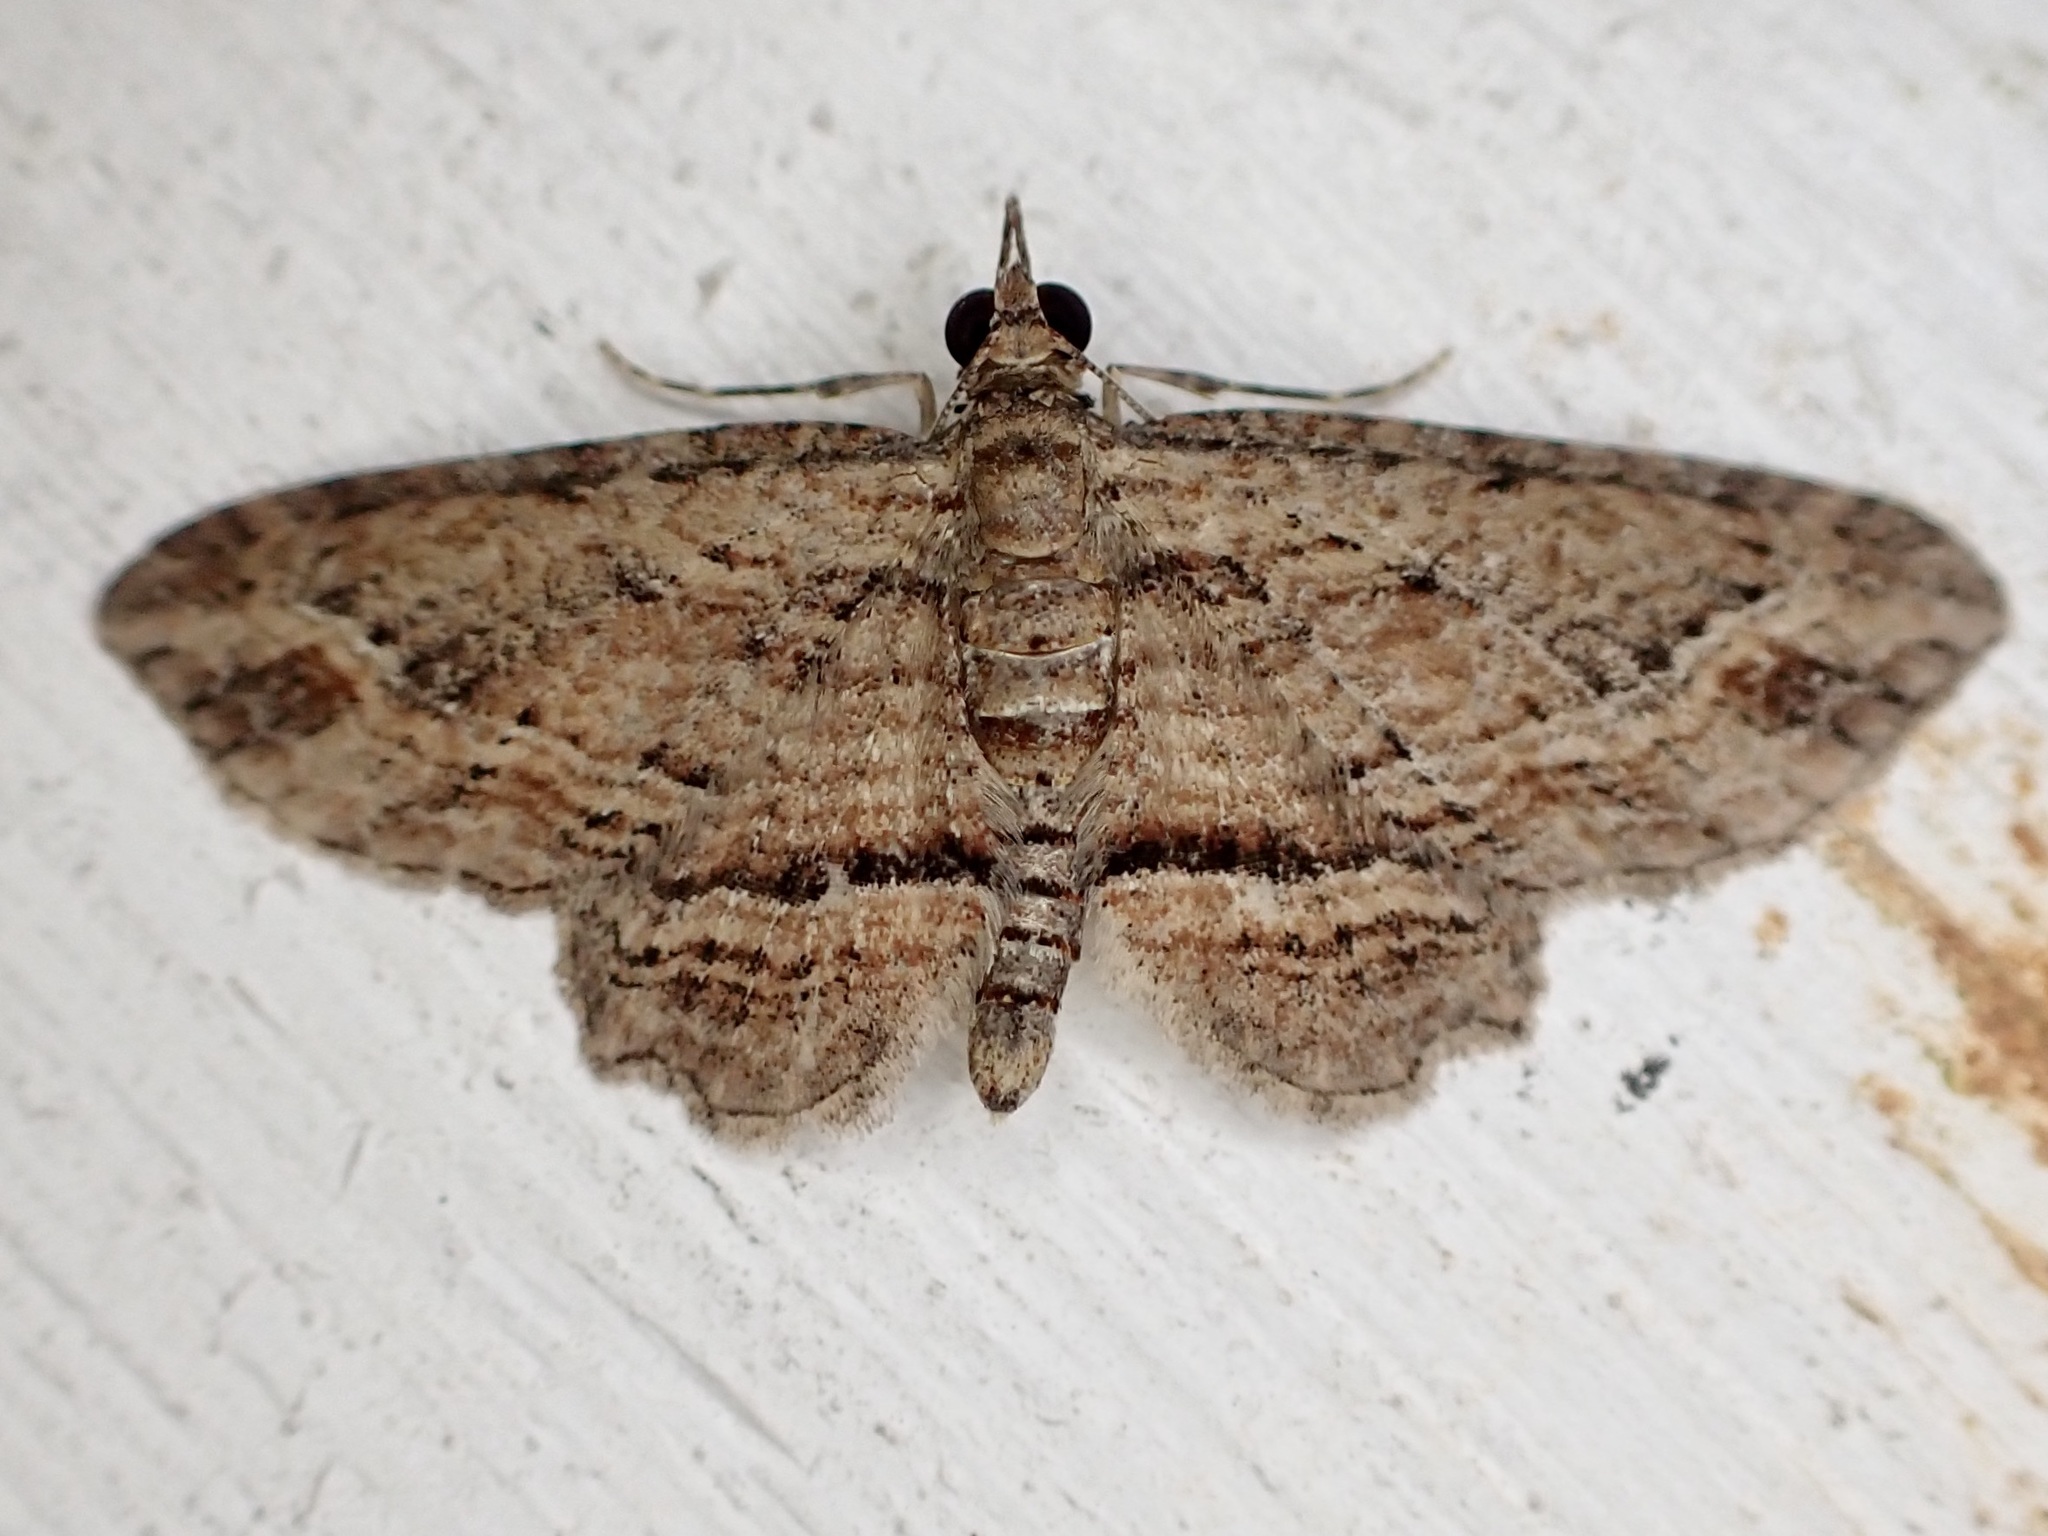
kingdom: Animalia
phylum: Arthropoda
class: Insecta
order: Lepidoptera
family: Geometridae
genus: Chloroclystis
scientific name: Chloroclystis filata
